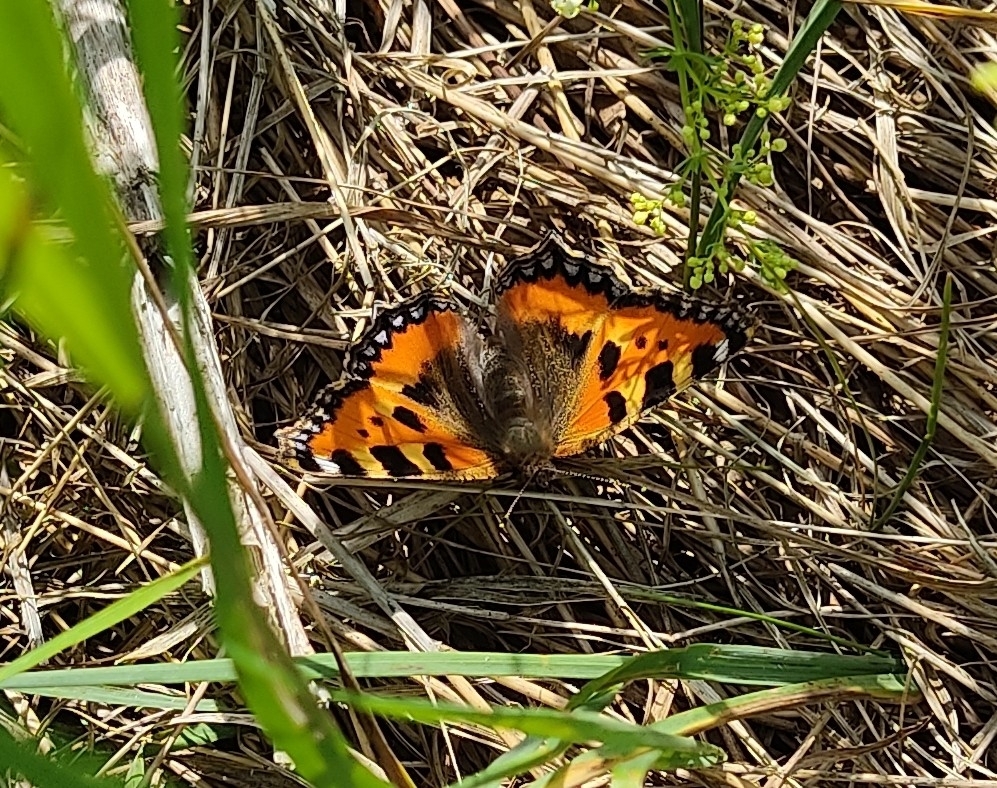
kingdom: Animalia
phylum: Arthropoda
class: Insecta
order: Lepidoptera
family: Nymphalidae
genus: Aglais
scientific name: Aglais urticae
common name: Small tortoiseshell
